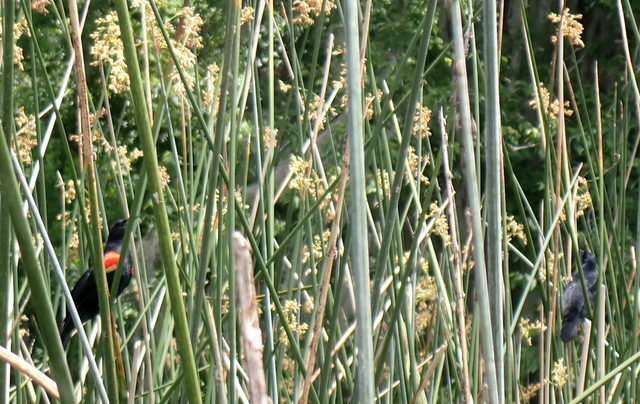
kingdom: Animalia
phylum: Chordata
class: Aves
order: Passeriformes
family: Icteridae
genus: Agelaius
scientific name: Agelaius phoeniceus
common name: Red-winged blackbird
